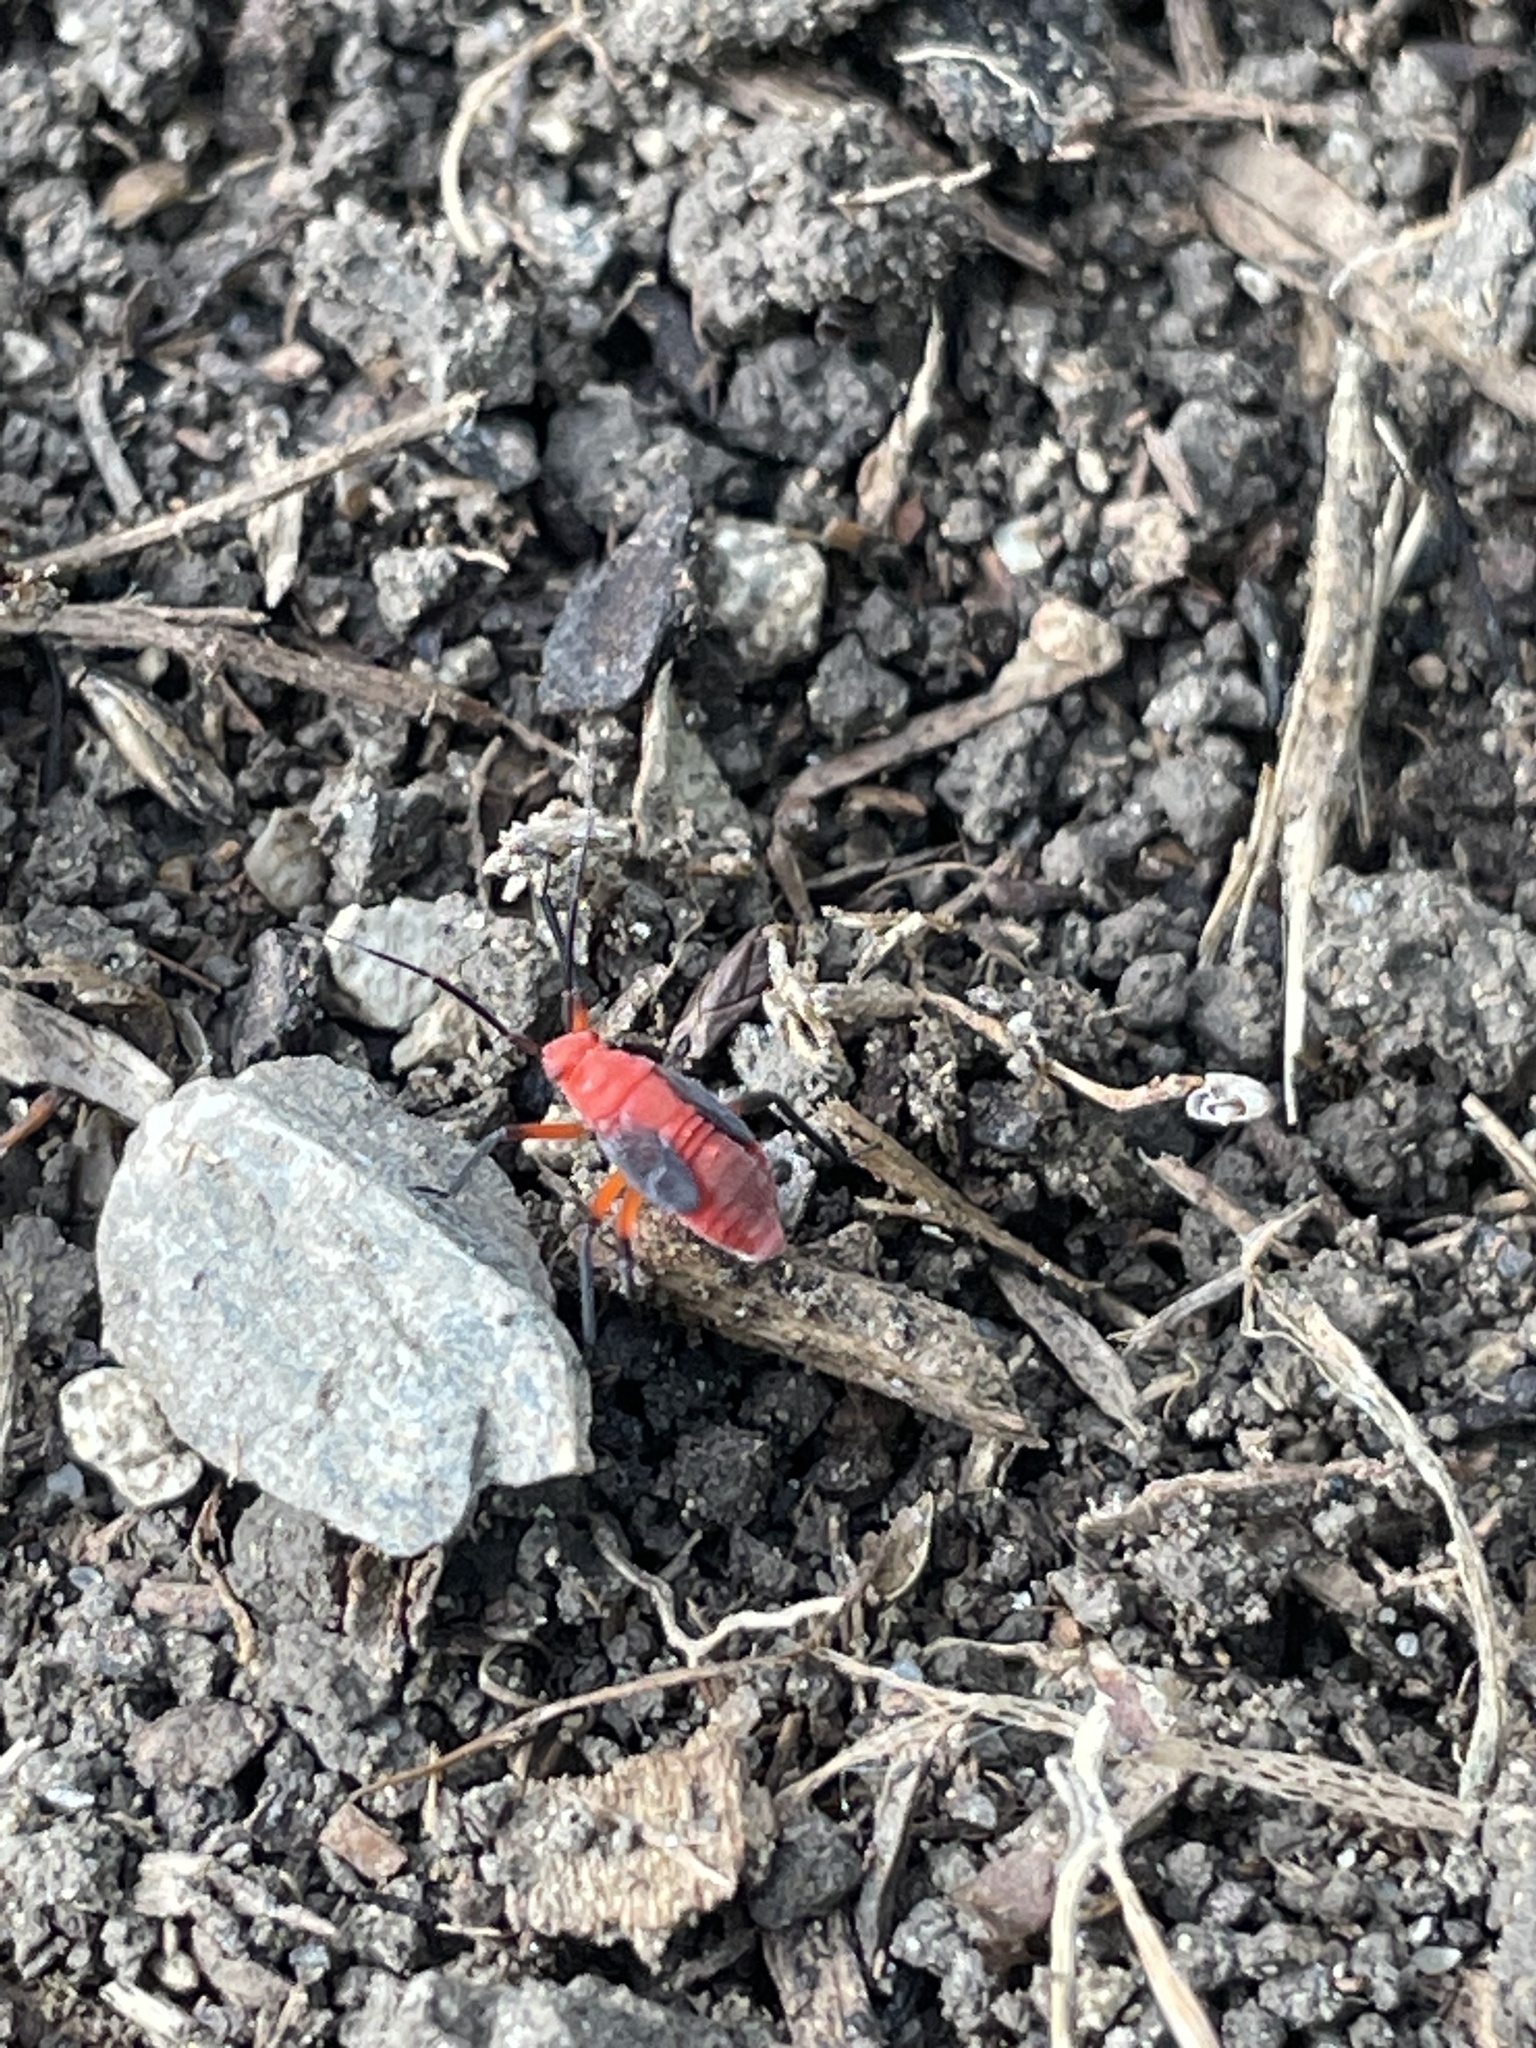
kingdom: Animalia
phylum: Arthropoda
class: Insecta
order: Hemiptera
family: Rhopalidae
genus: Jadera
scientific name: Jadera haematoloma
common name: Red-shouldered bug
